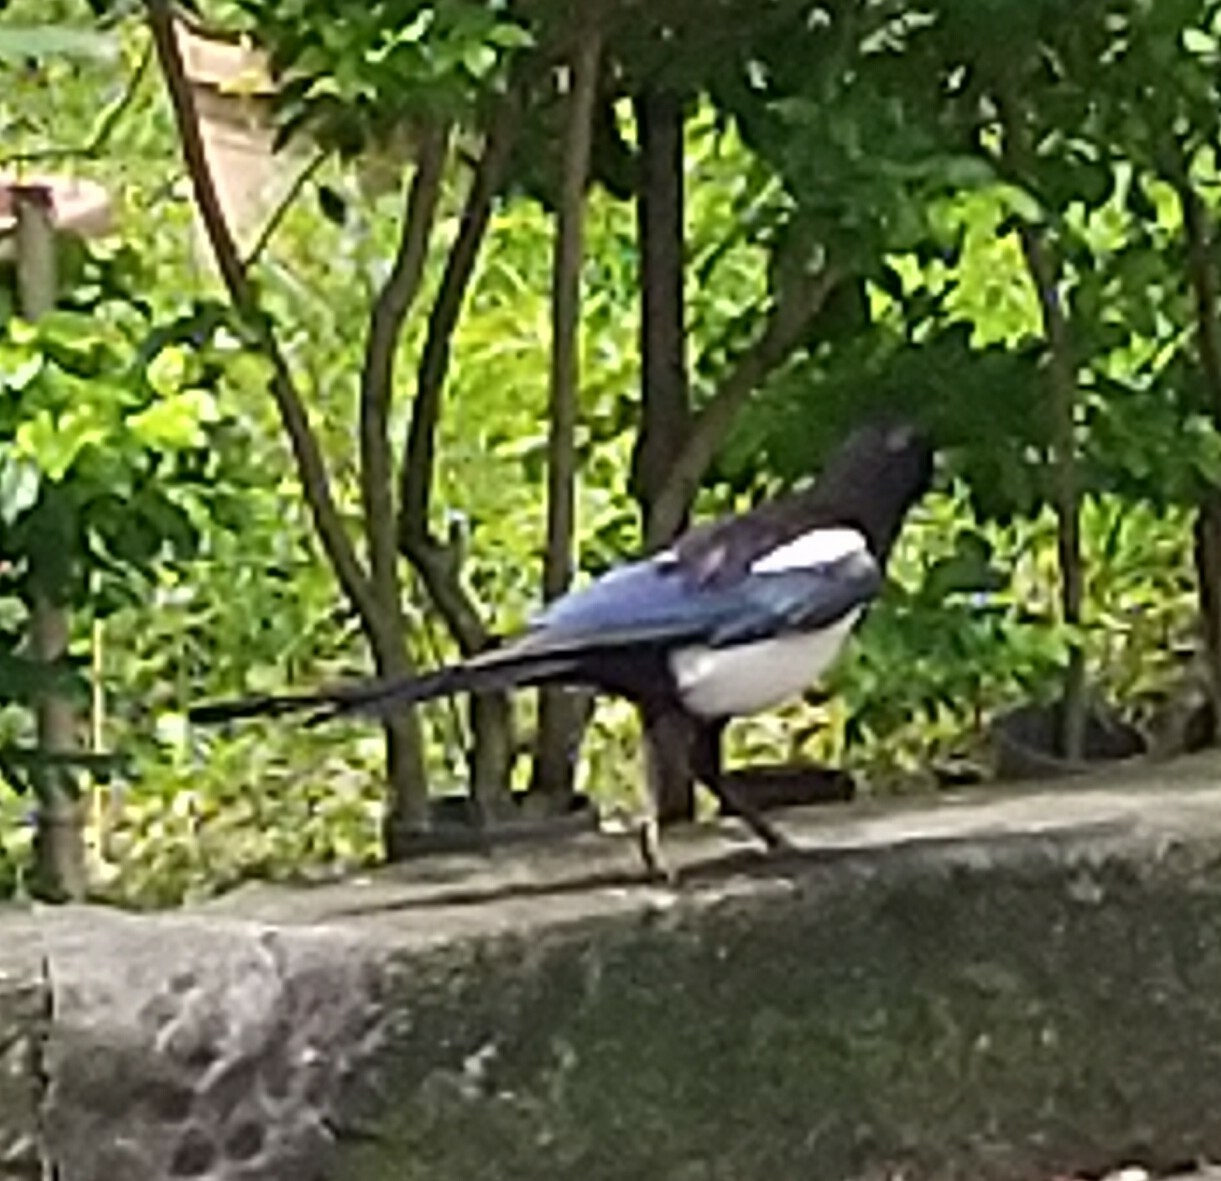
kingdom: Animalia
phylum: Chordata
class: Aves
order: Passeriformes
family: Corvidae
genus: Pica
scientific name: Pica serica
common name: Oriental magpie
